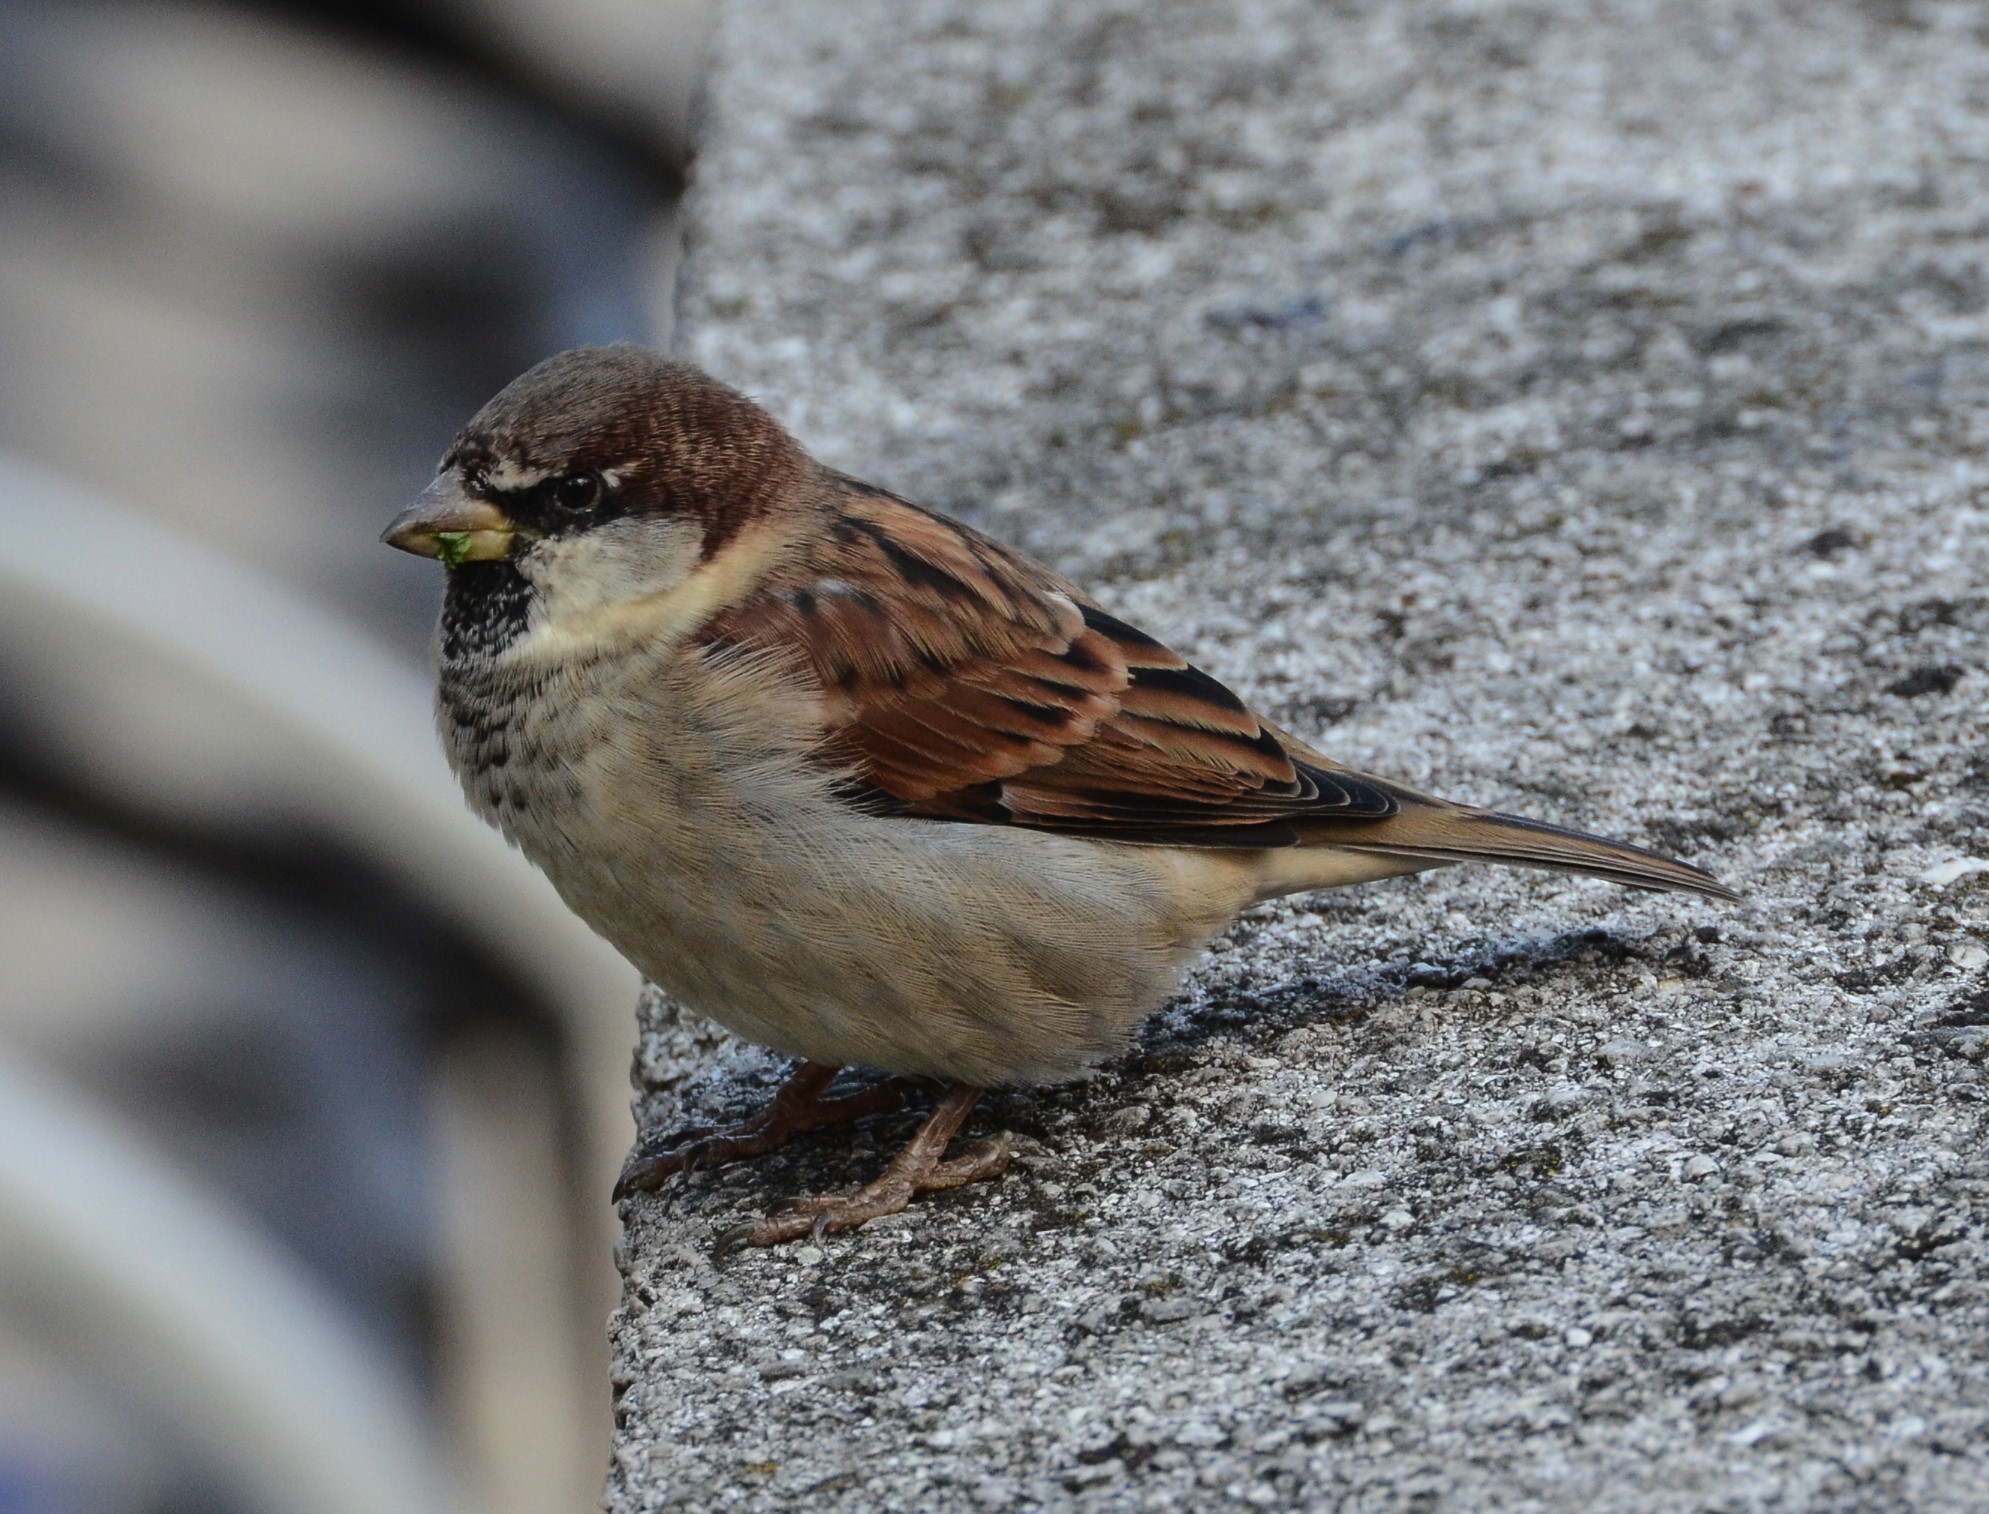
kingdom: Animalia
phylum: Chordata
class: Aves
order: Passeriformes
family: Passeridae
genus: Passer
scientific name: Passer domesticus
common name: House sparrow
